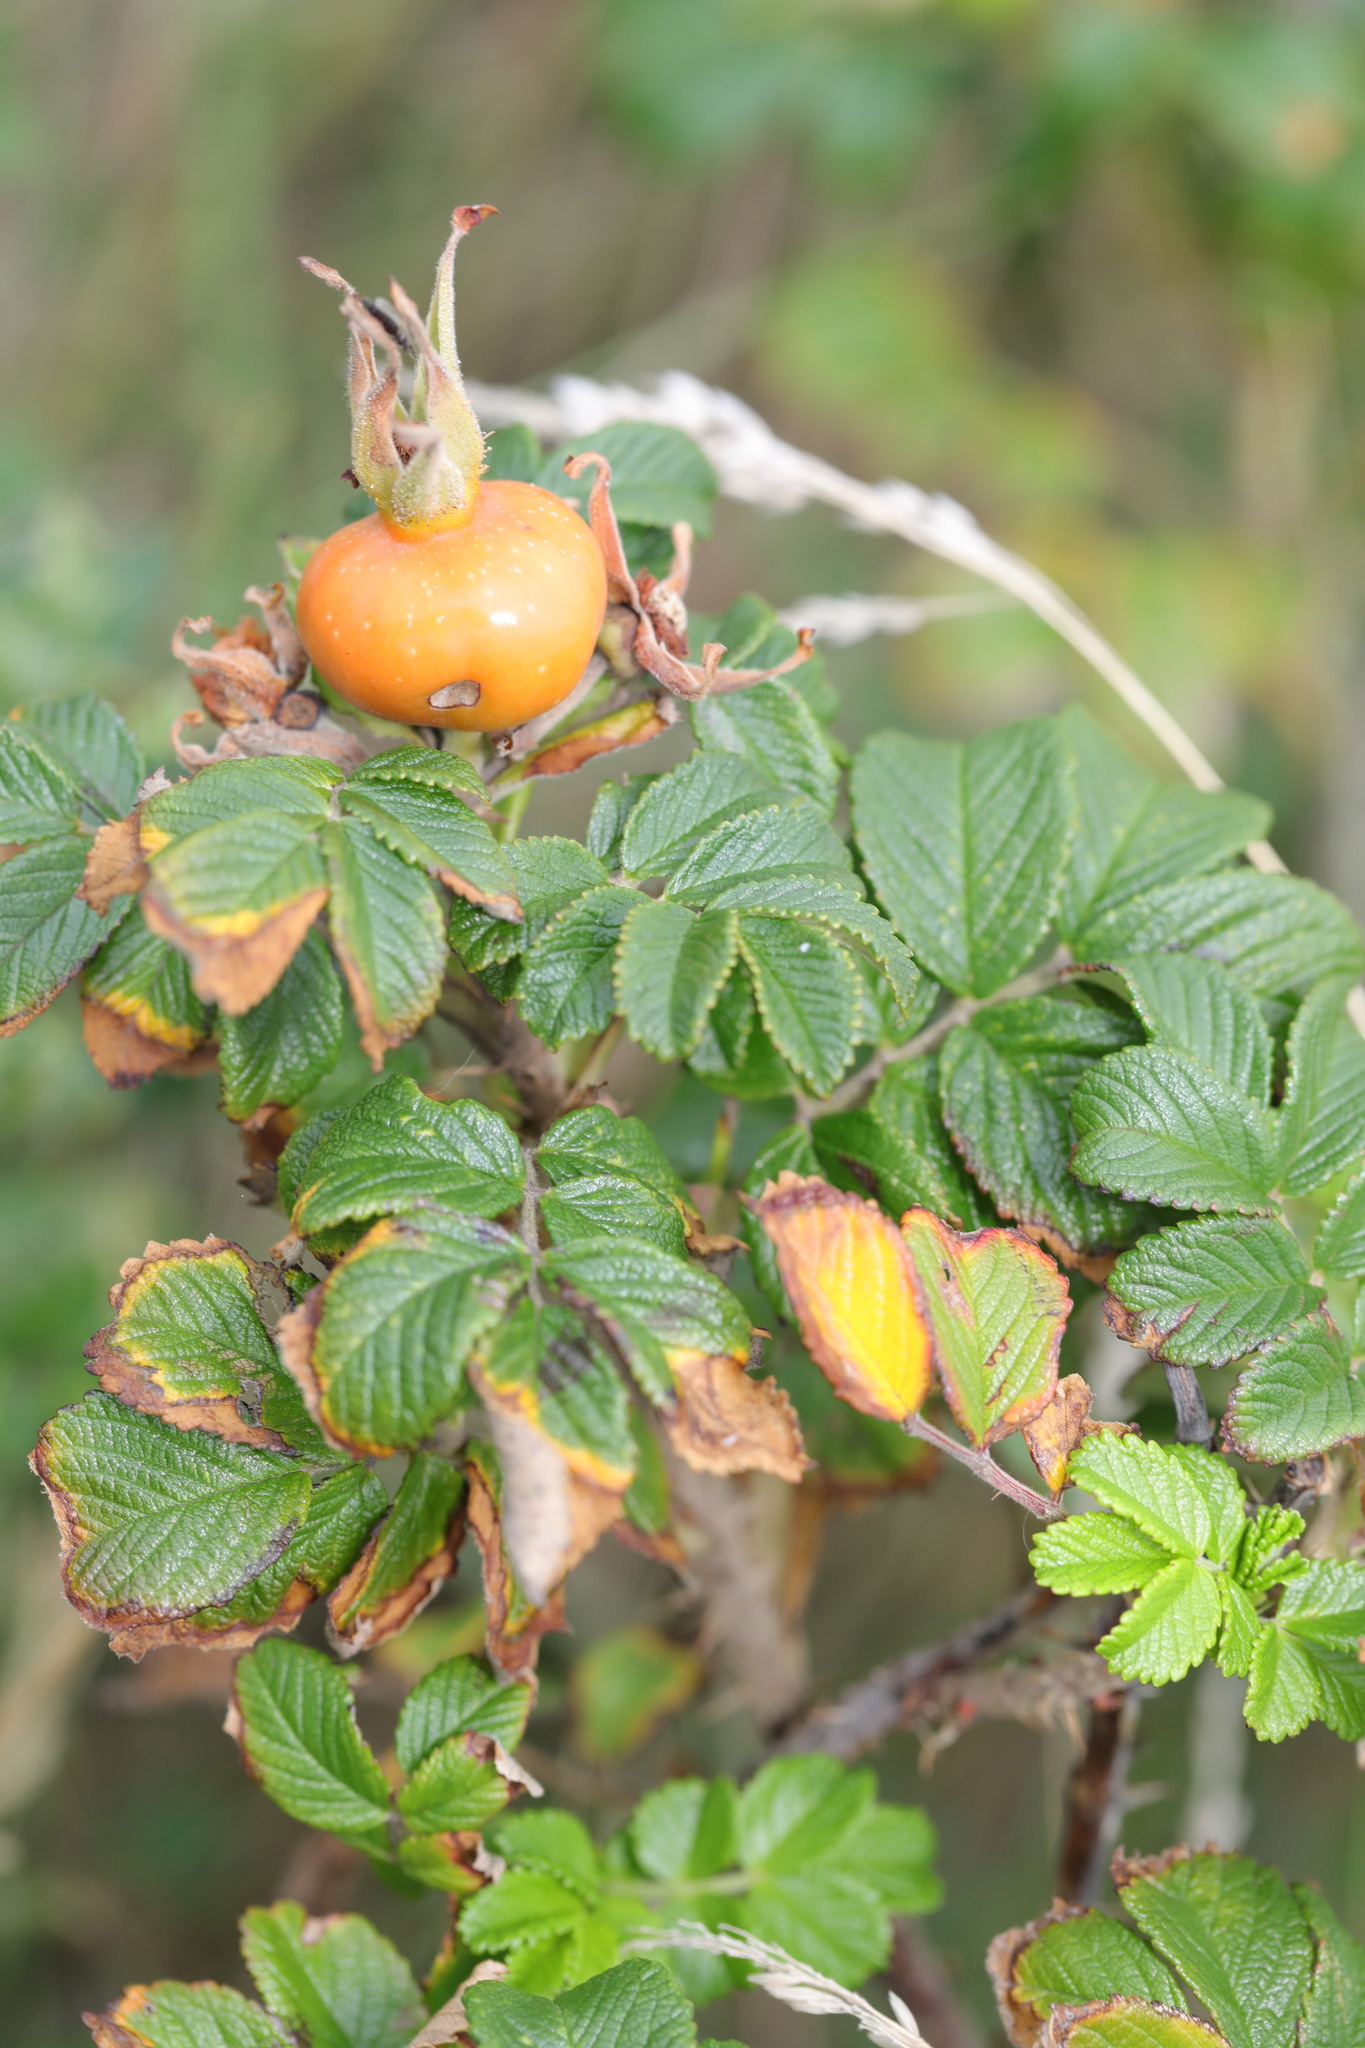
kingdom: Plantae
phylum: Tracheophyta
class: Magnoliopsida
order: Rosales
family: Rosaceae
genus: Rosa
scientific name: Rosa rugosa
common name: Japanese rose
